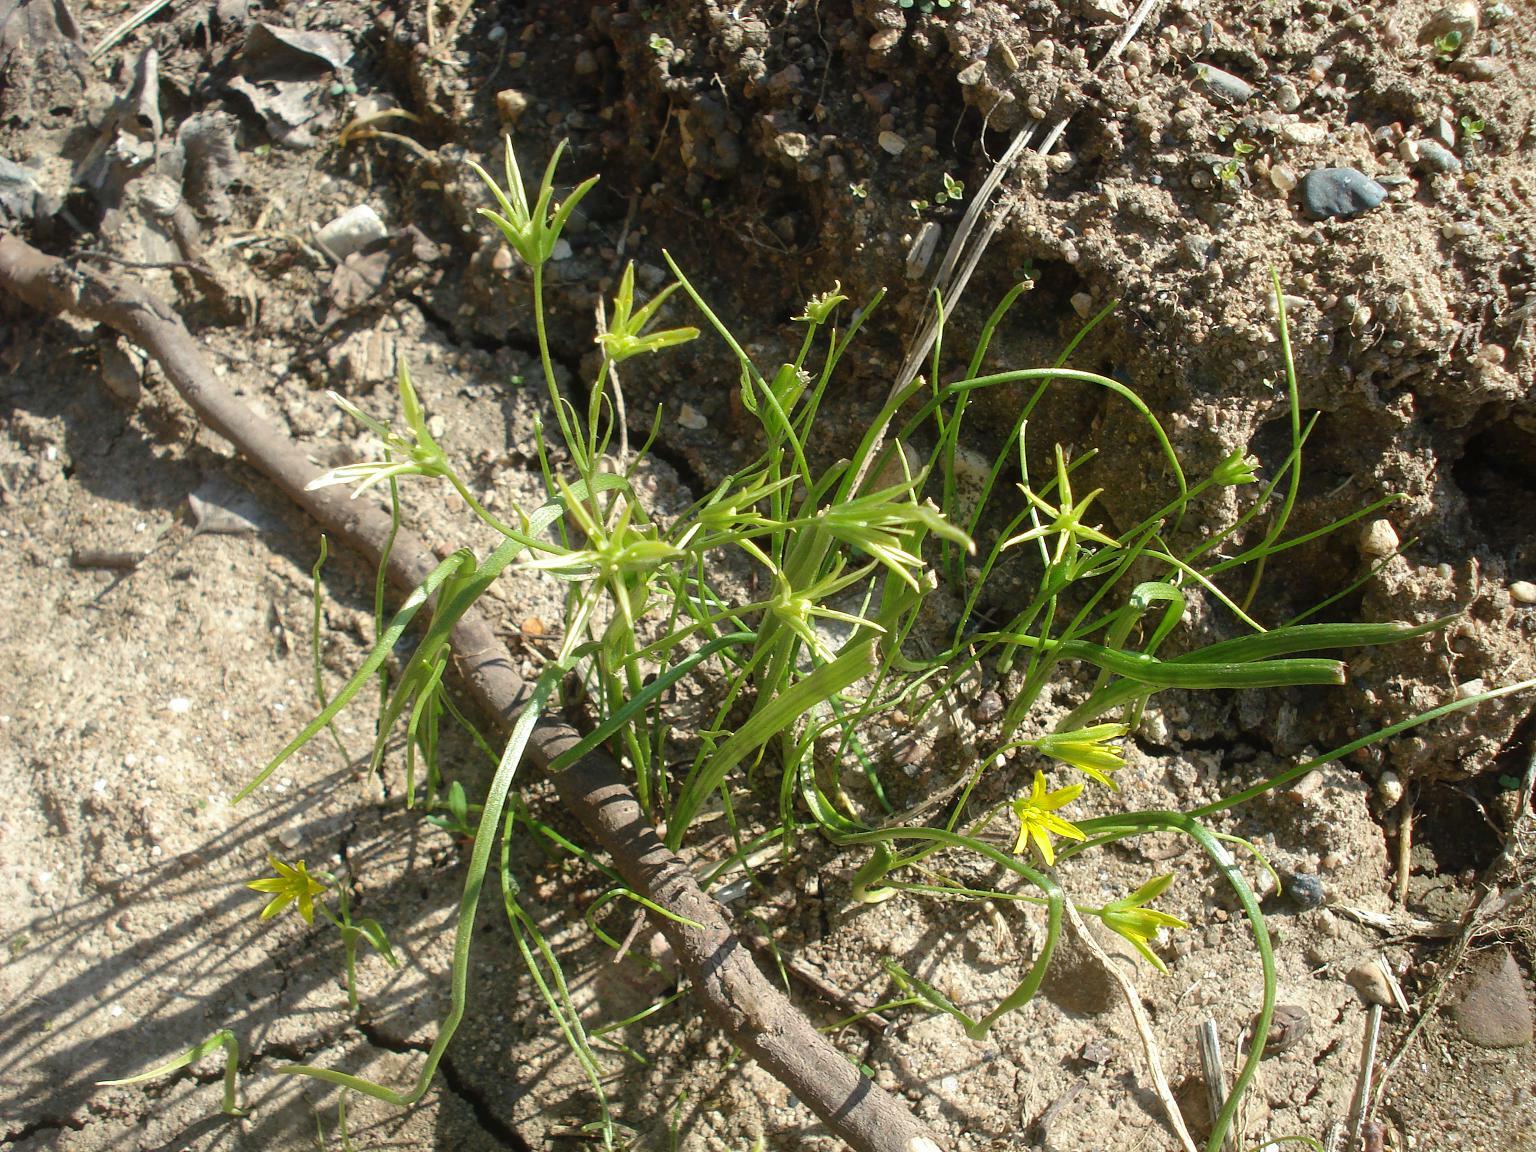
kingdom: Plantae
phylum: Tracheophyta
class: Liliopsida
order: Liliales
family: Liliaceae
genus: Gagea
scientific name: Gagea minima
